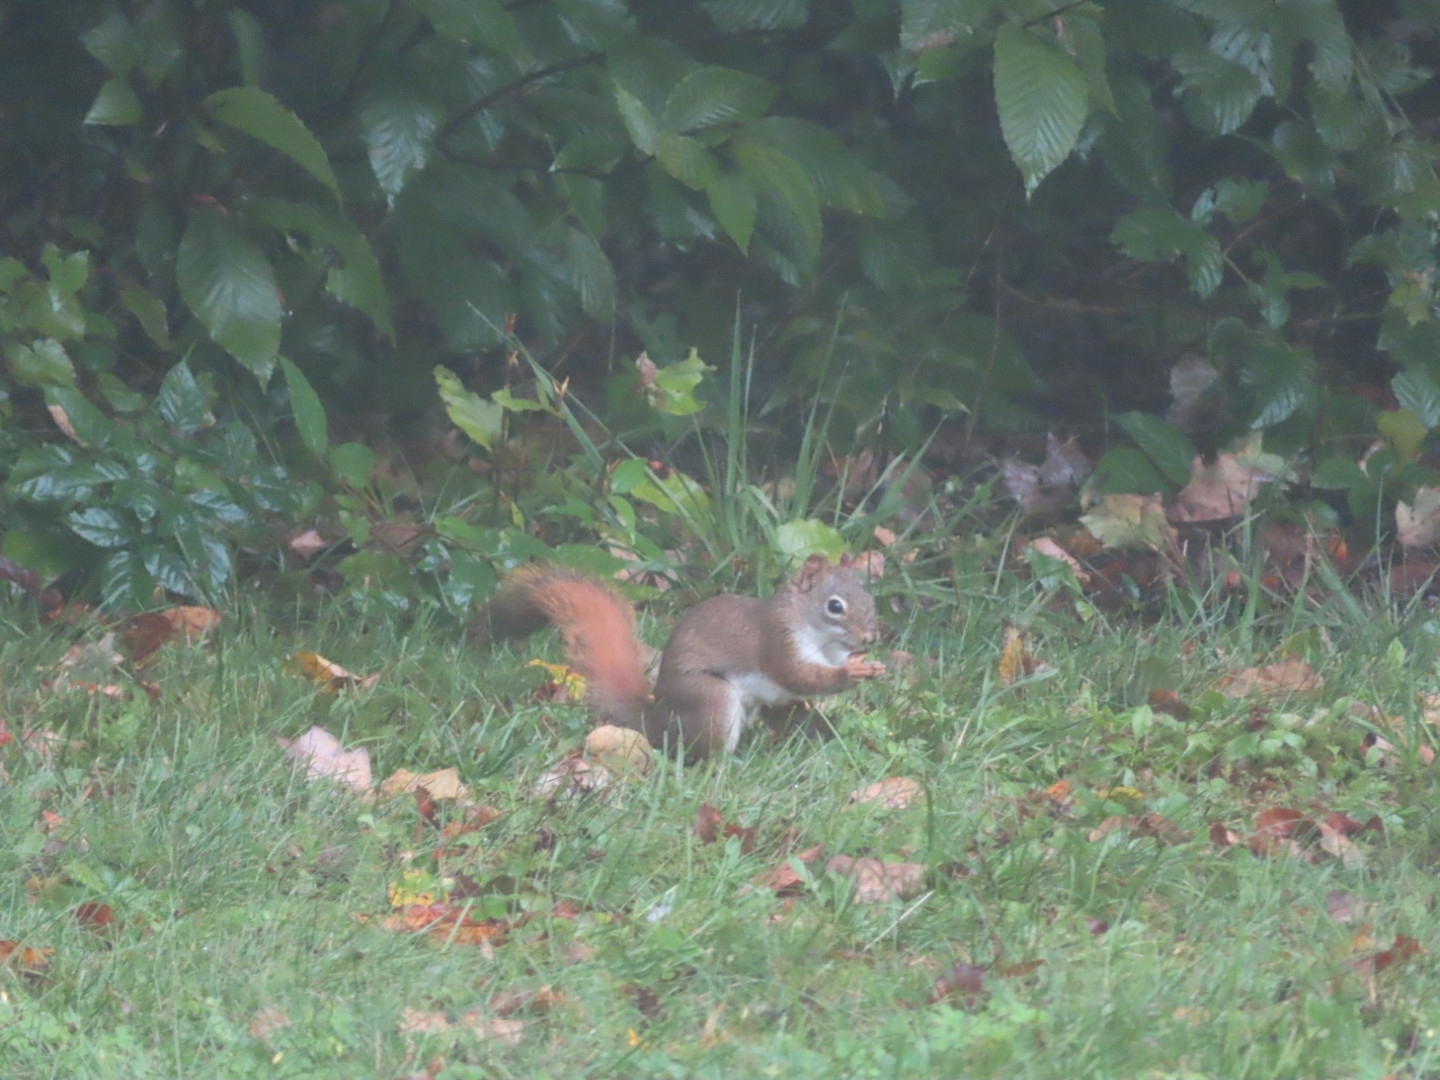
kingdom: Animalia
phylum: Chordata
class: Mammalia
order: Rodentia
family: Sciuridae
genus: Tamiasciurus
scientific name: Tamiasciurus hudsonicus
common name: Red squirrel
